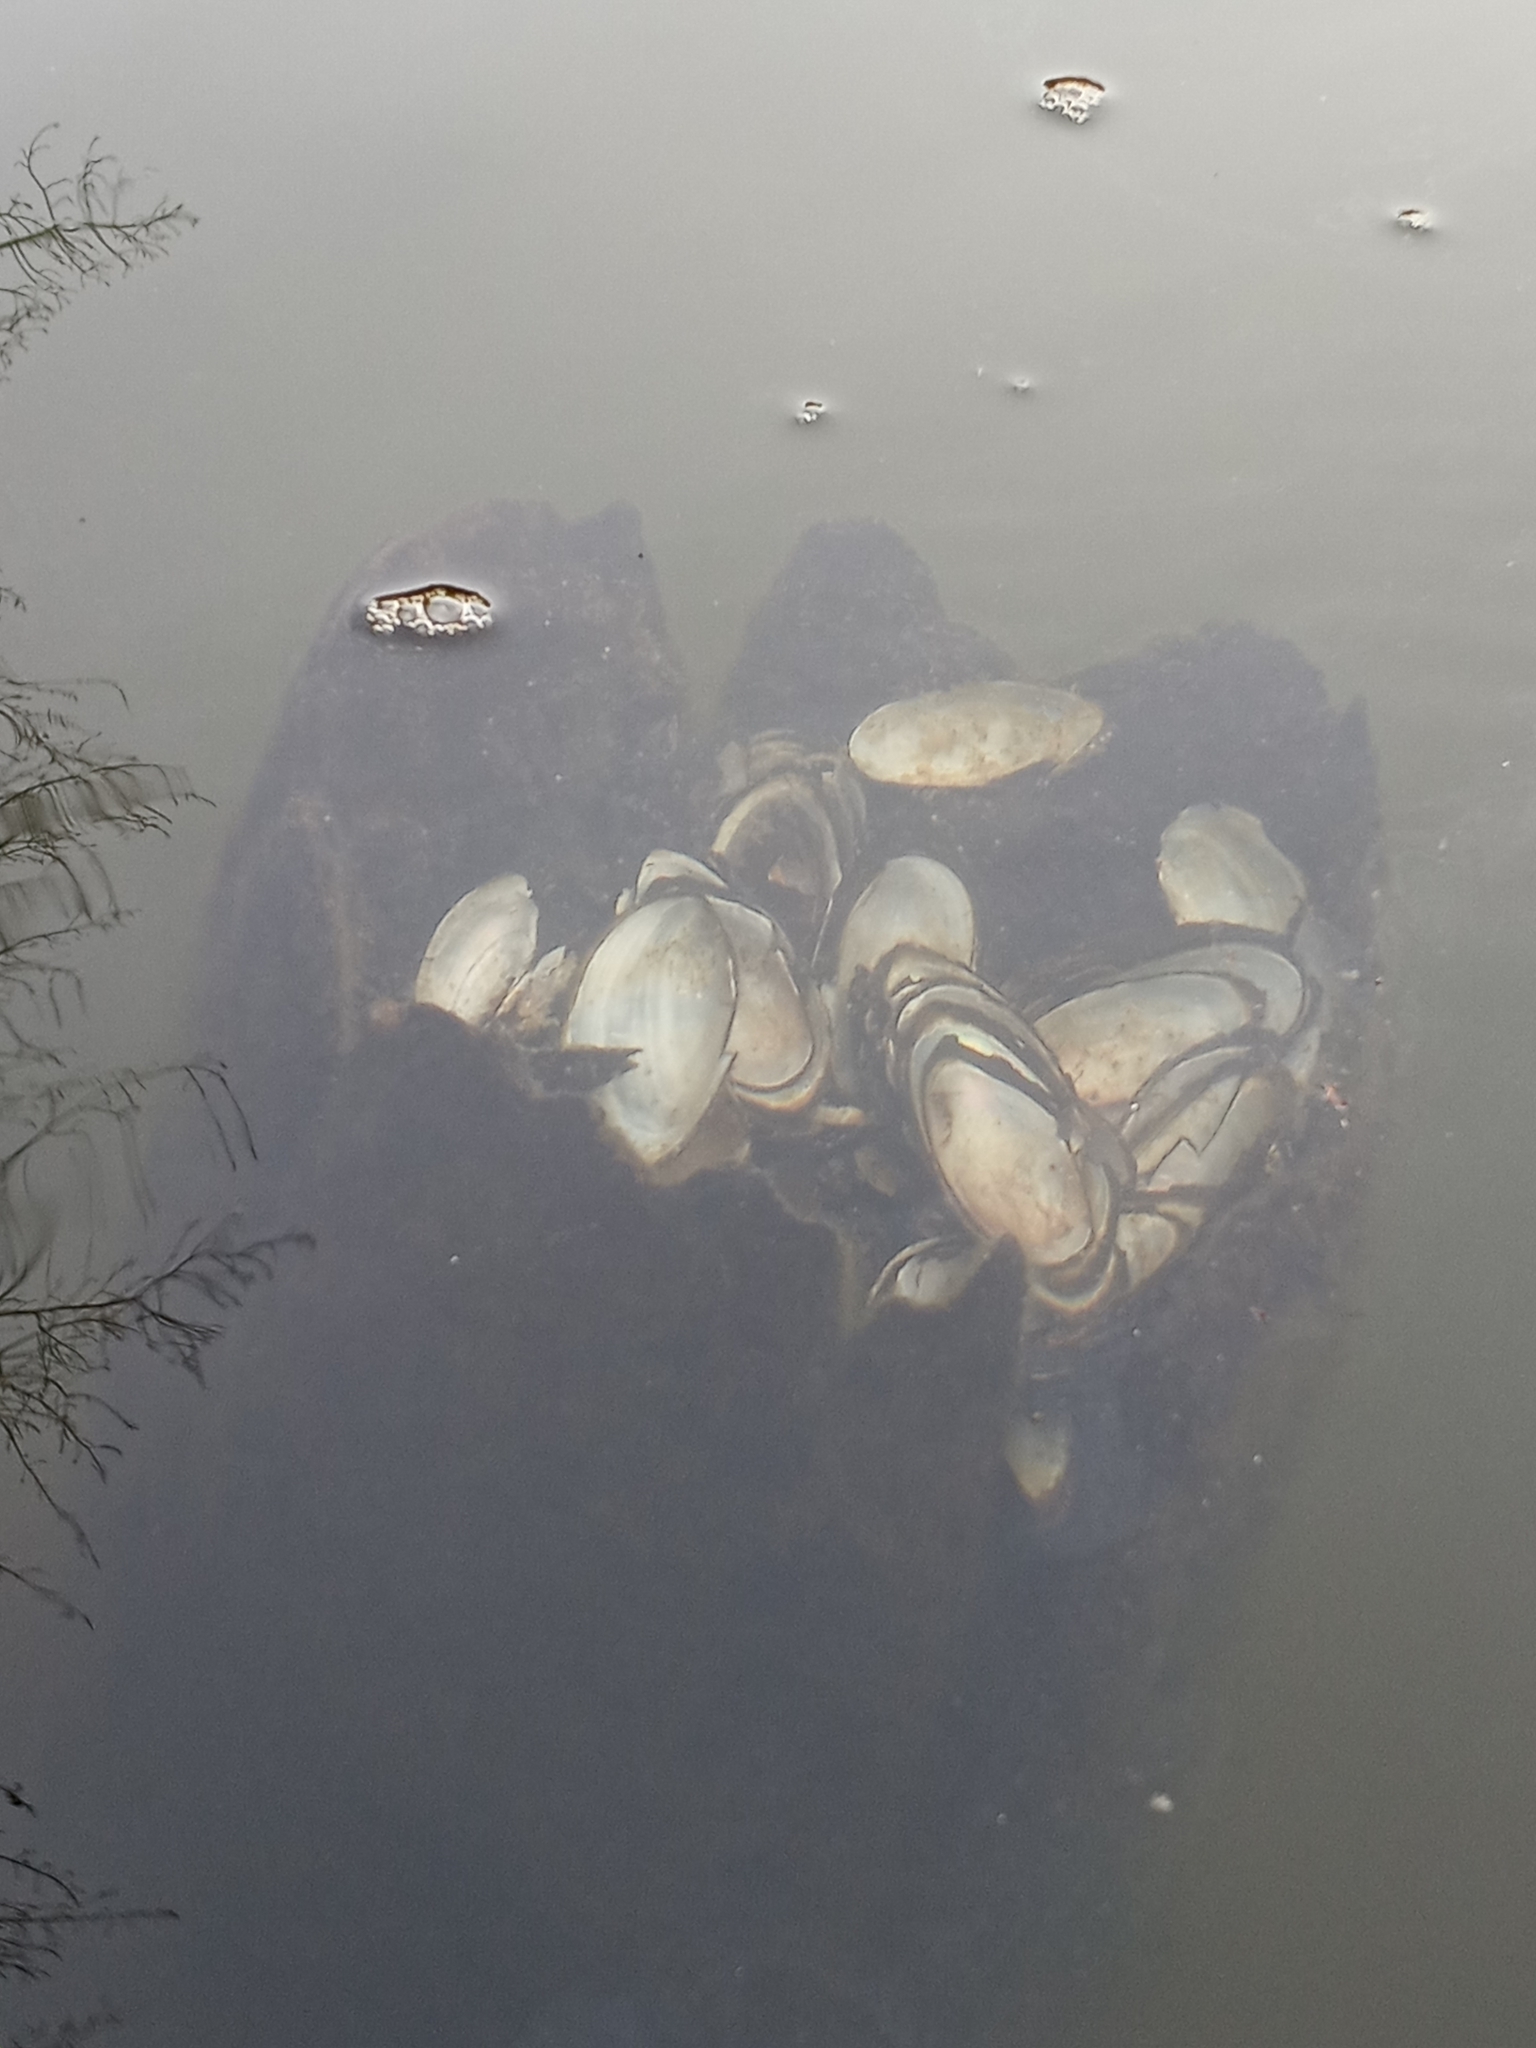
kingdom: Animalia
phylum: Chordata
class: Mammalia
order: Rodentia
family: Cricetidae
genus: Ondatra
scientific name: Ondatra zibethicus
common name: Muskrat
